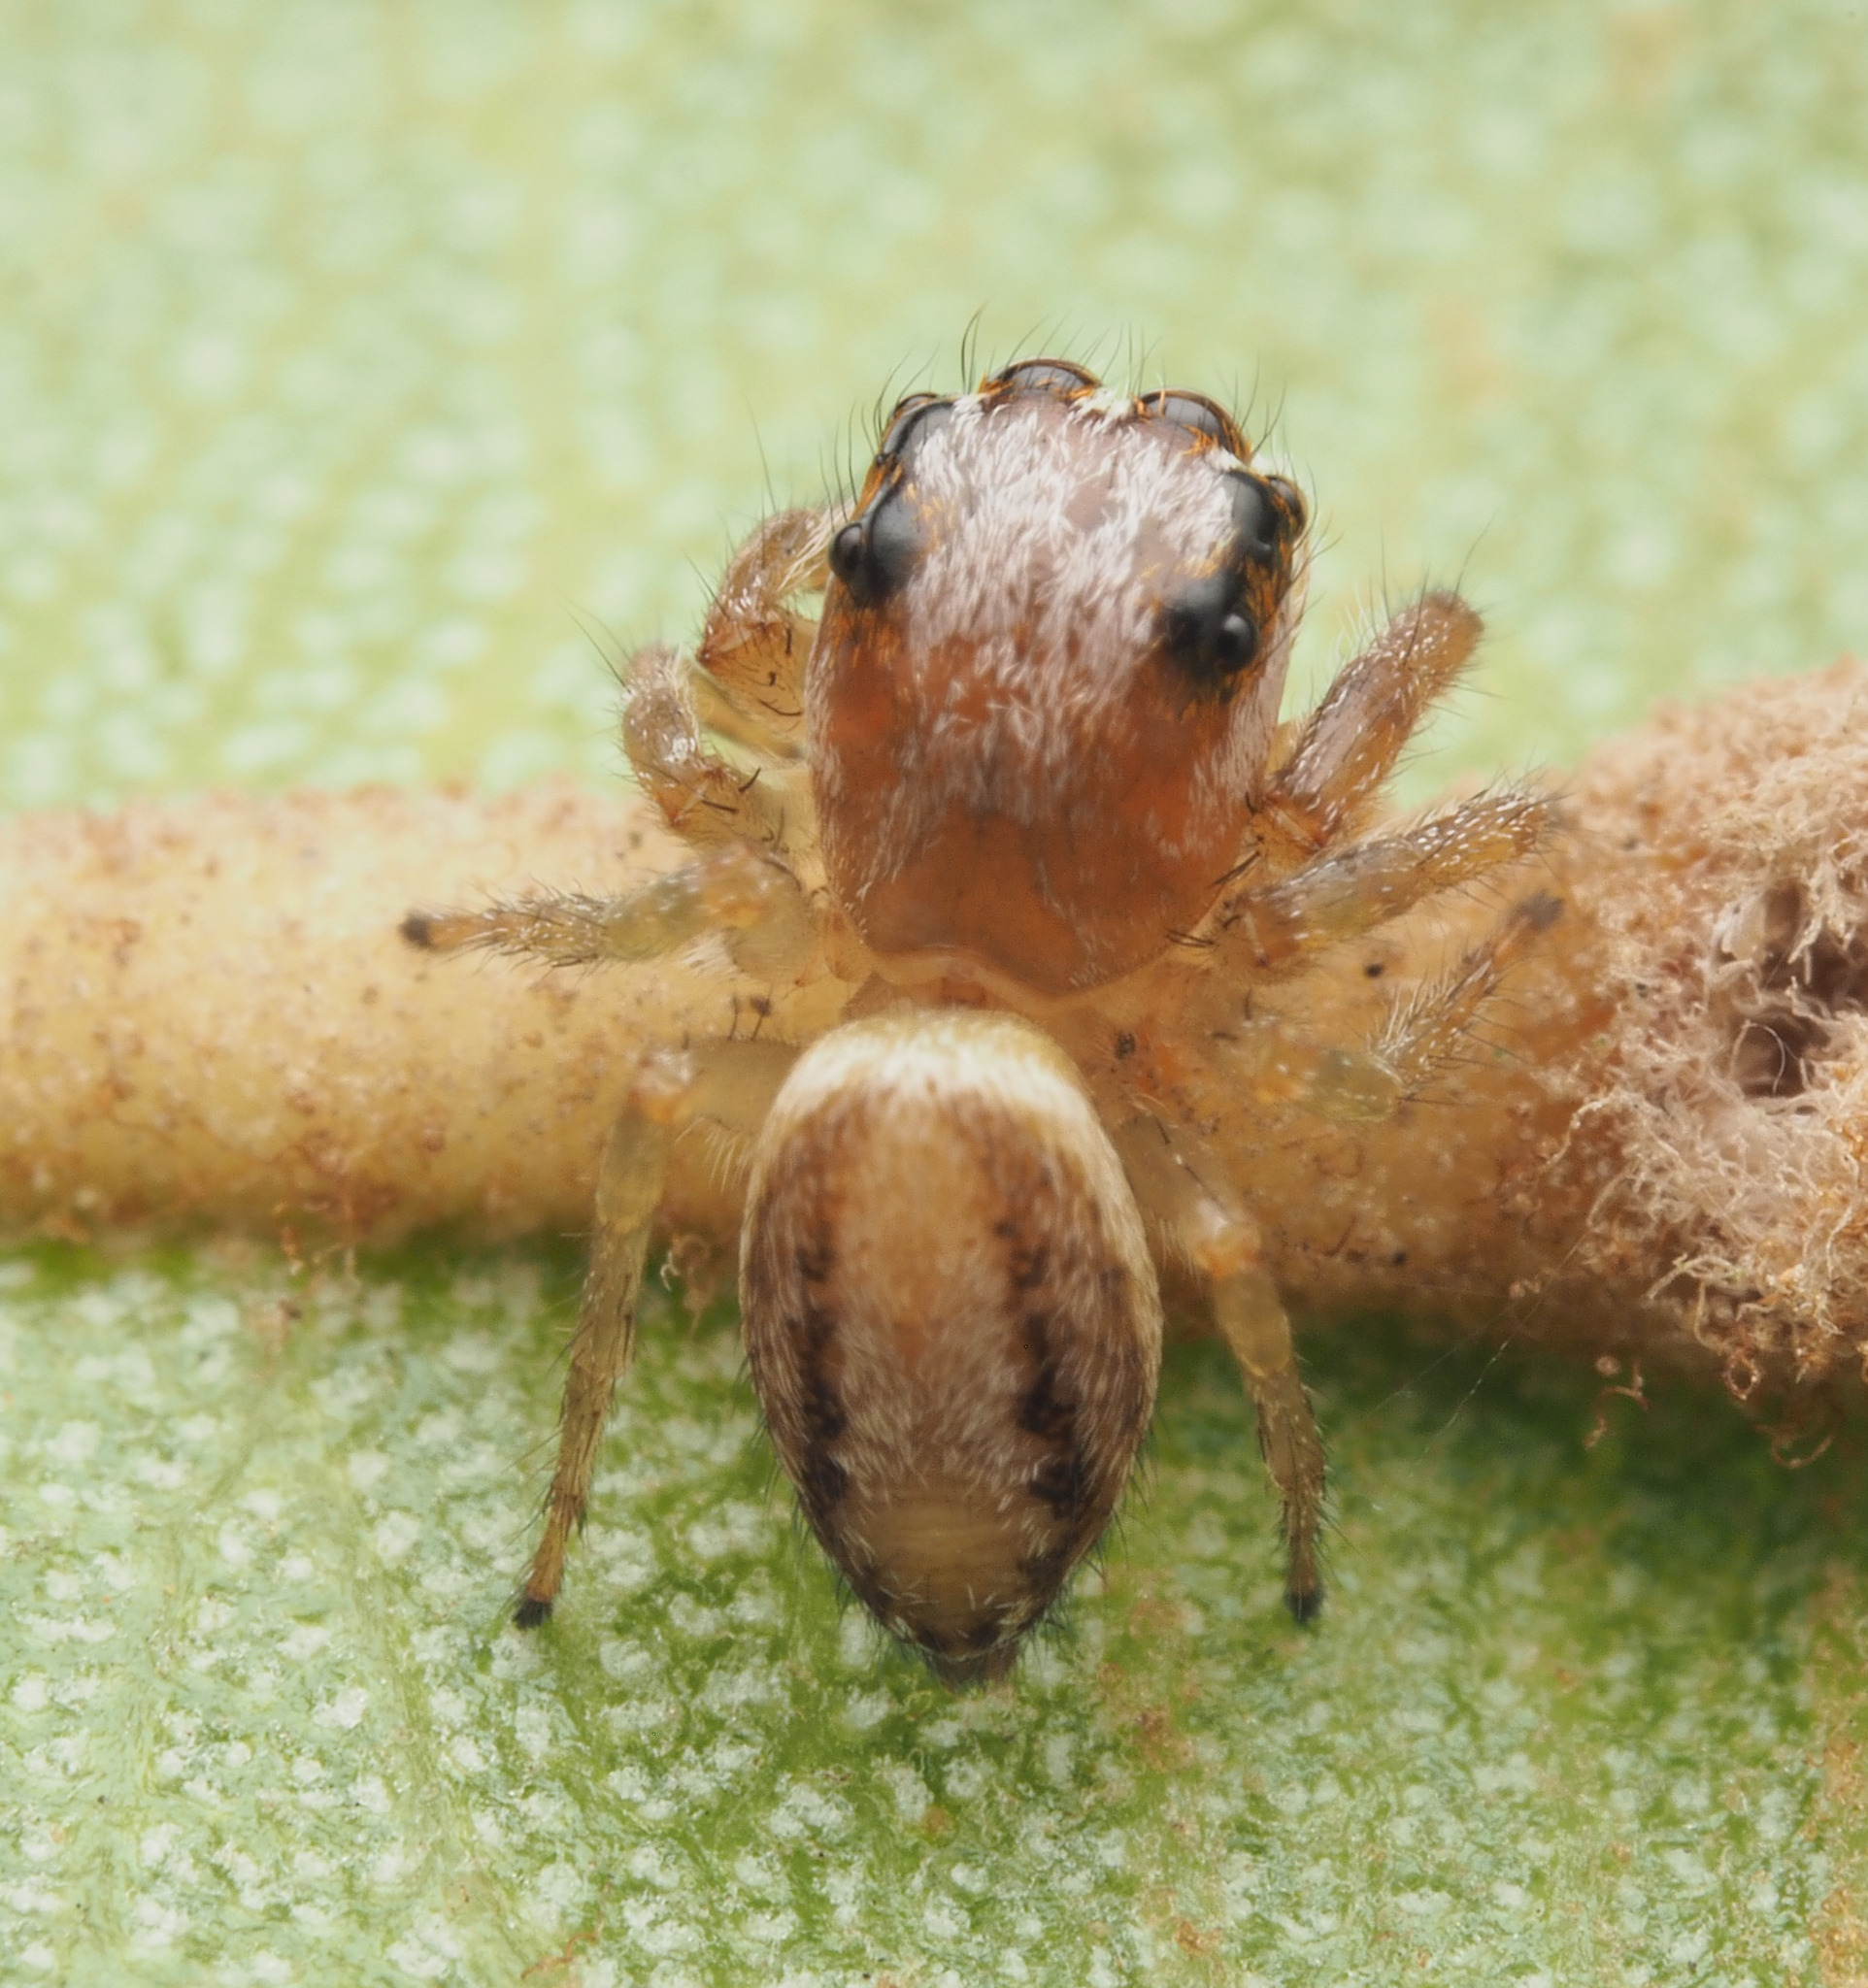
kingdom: Animalia
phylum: Arthropoda
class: Arachnida
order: Araneae
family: Salticidae
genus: Opisthoncus
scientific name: Opisthoncus abnormis
